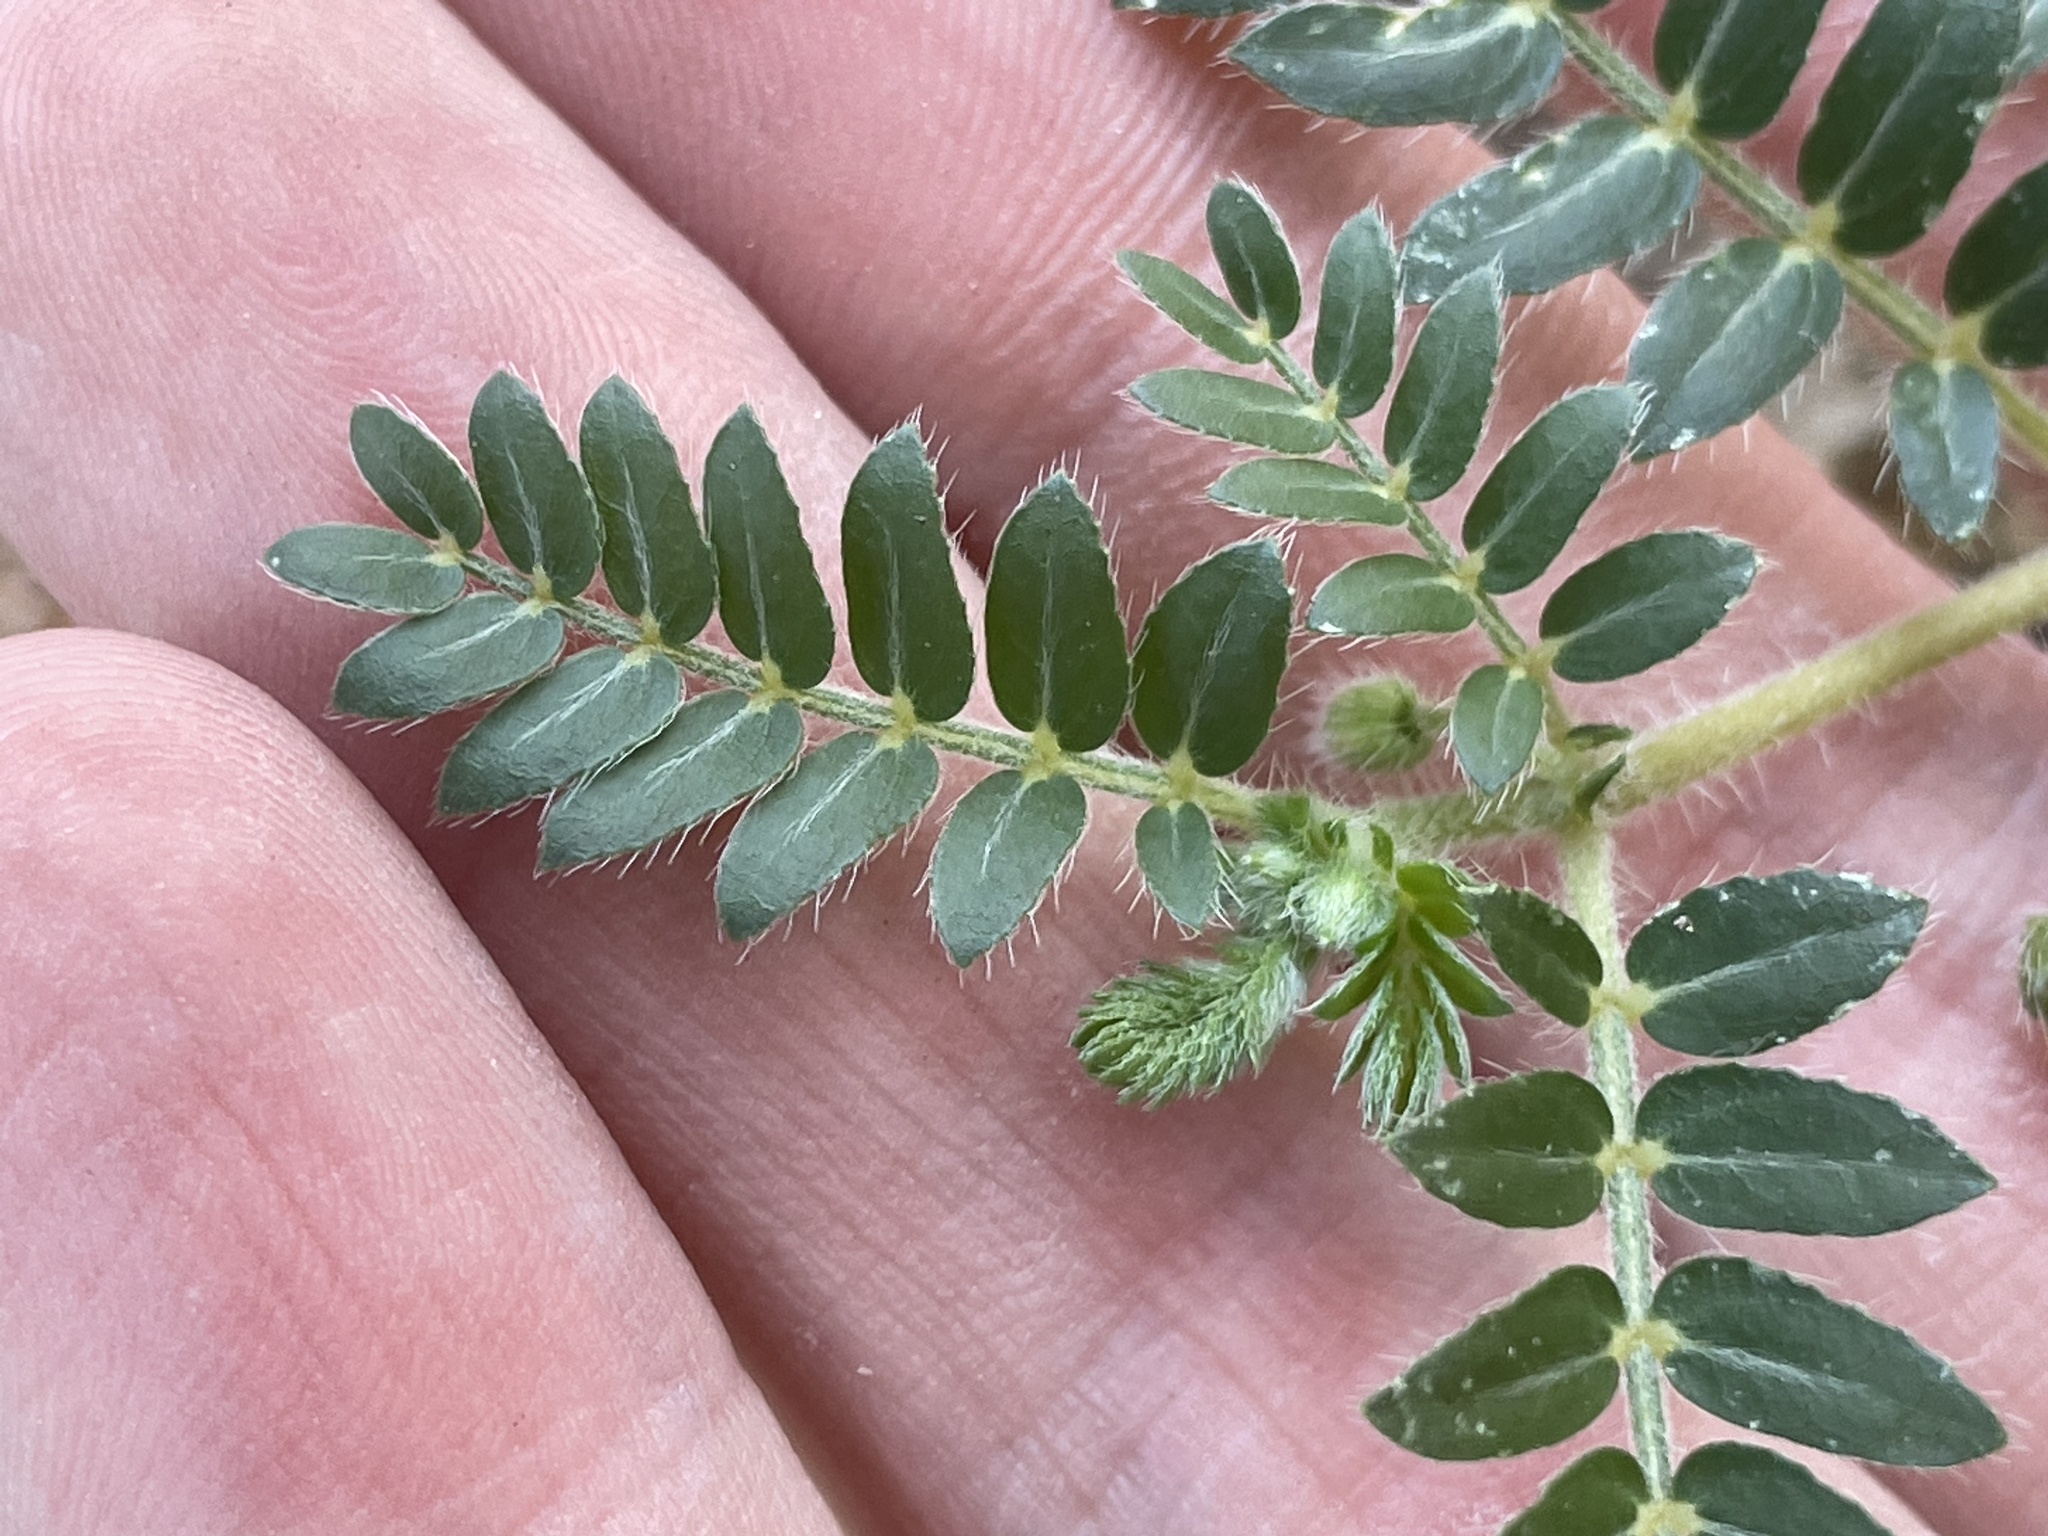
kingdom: Plantae
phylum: Tracheophyta
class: Magnoliopsida
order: Zygophyllales
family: Zygophyllaceae
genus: Tribulus
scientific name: Tribulus terrestris
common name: Puncturevine
